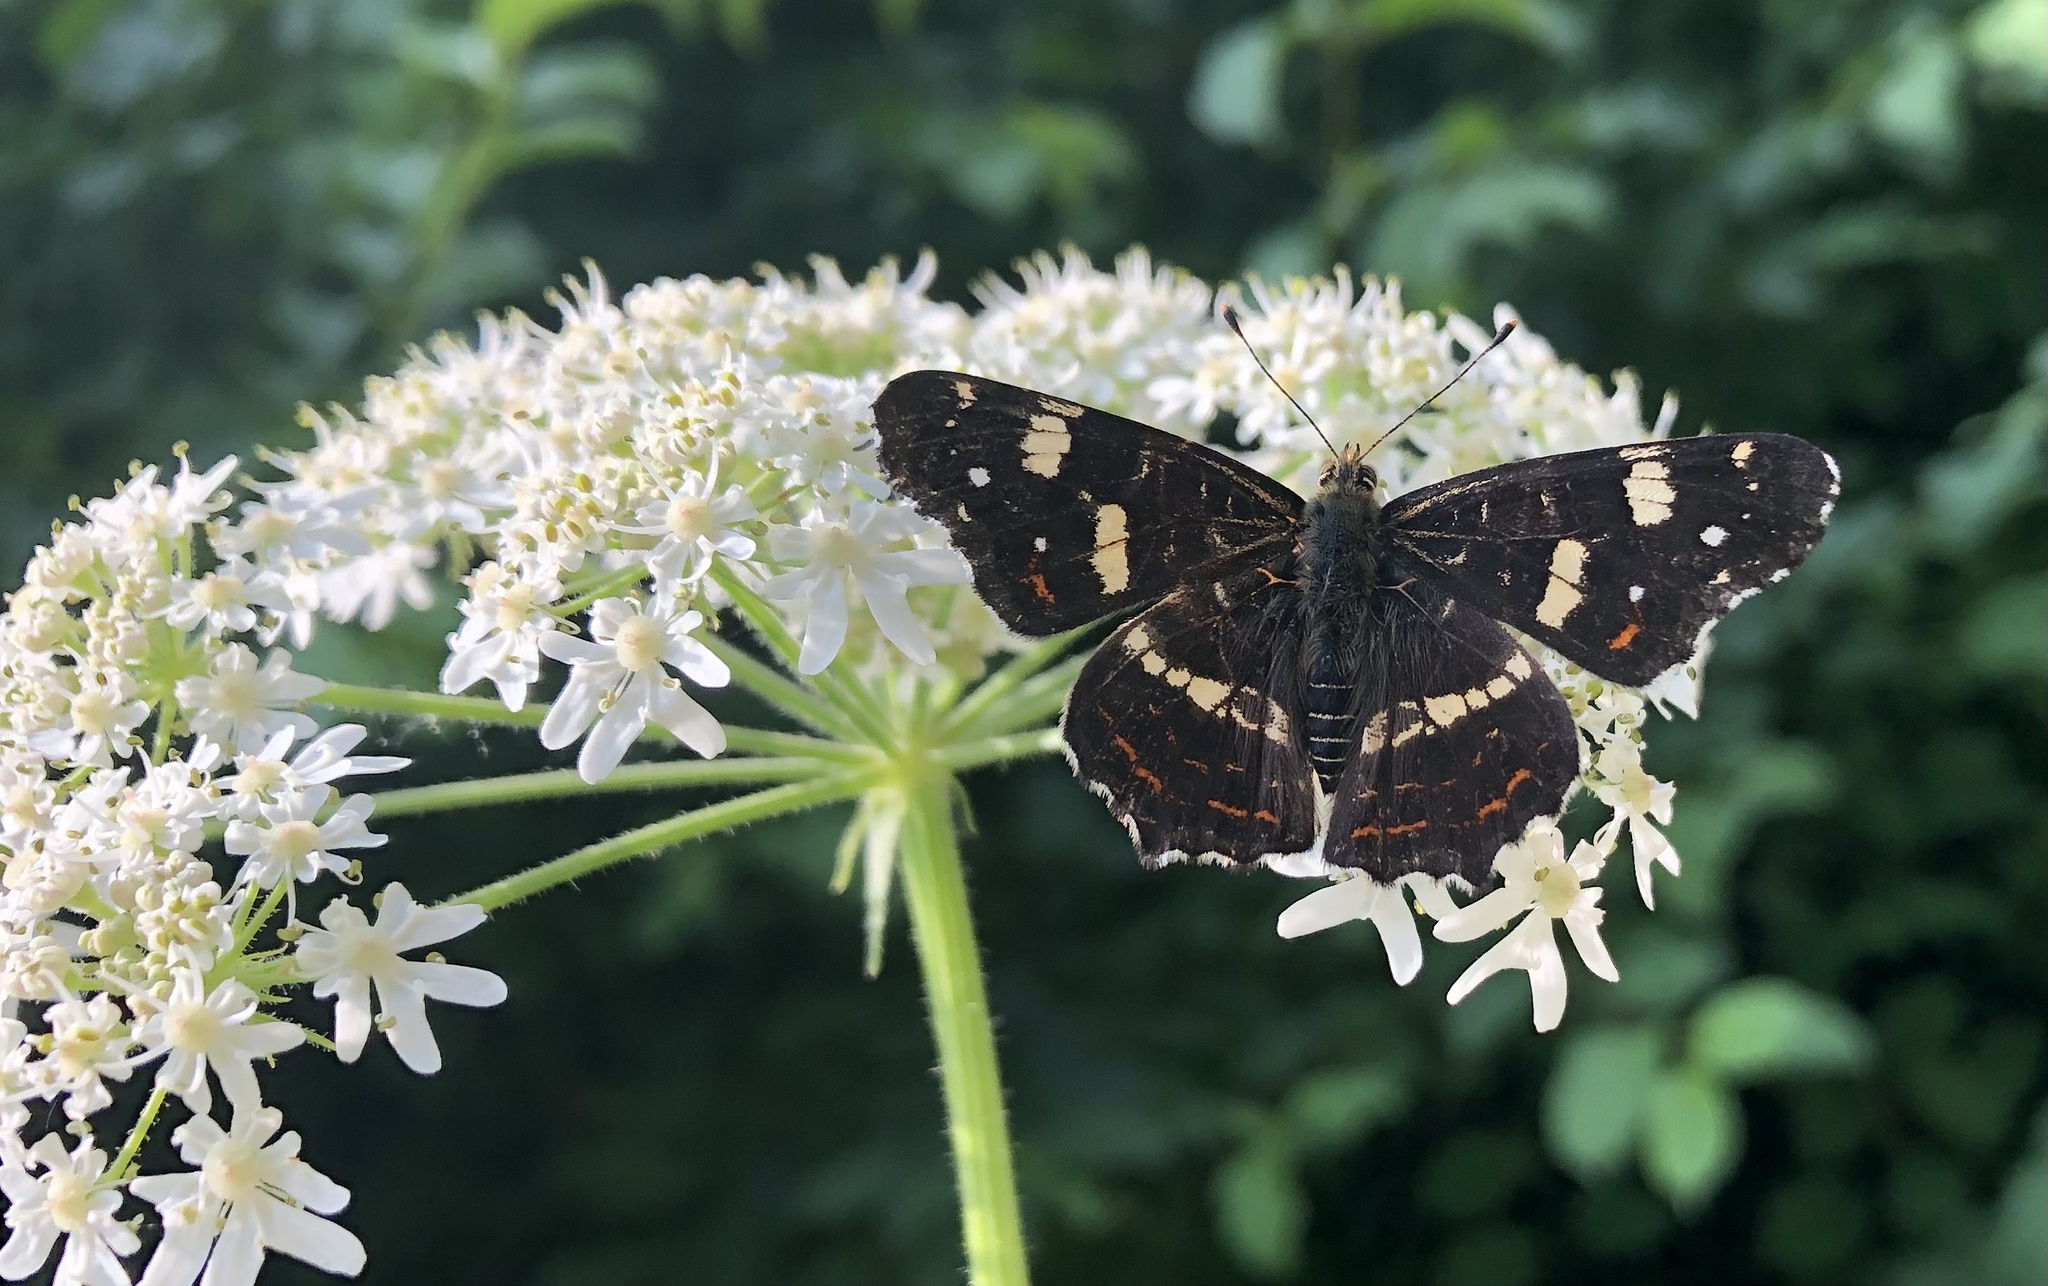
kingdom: Animalia
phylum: Arthropoda
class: Insecta
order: Lepidoptera
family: Nymphalidae
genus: Araschnia
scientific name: Araschnia levana
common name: Map butterfly
